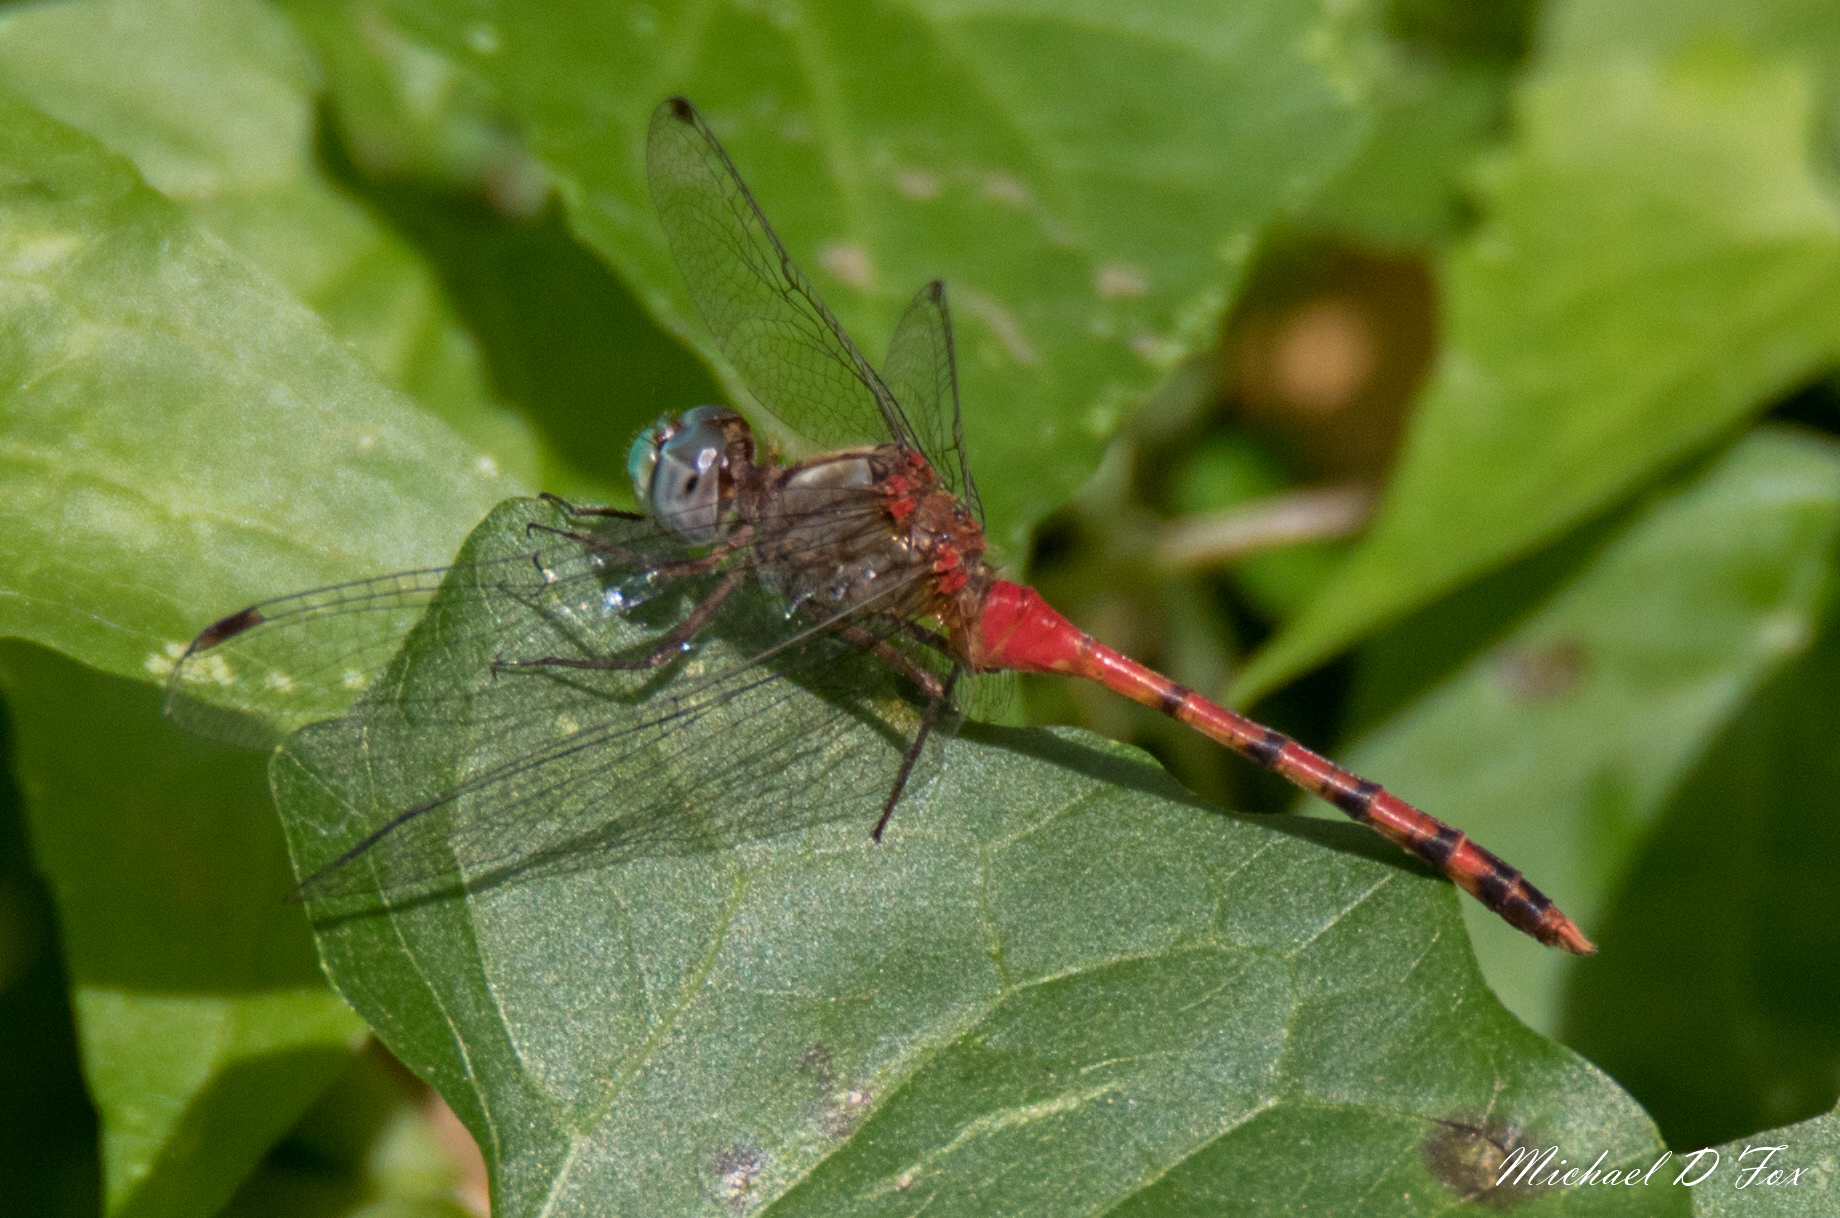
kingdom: Animalia
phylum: Arthropoda
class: Insecta
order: Odonata
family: Libellulidae
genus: Sympetrum
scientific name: Sympetrum ambiguum
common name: Blue-faced meadowhawk
